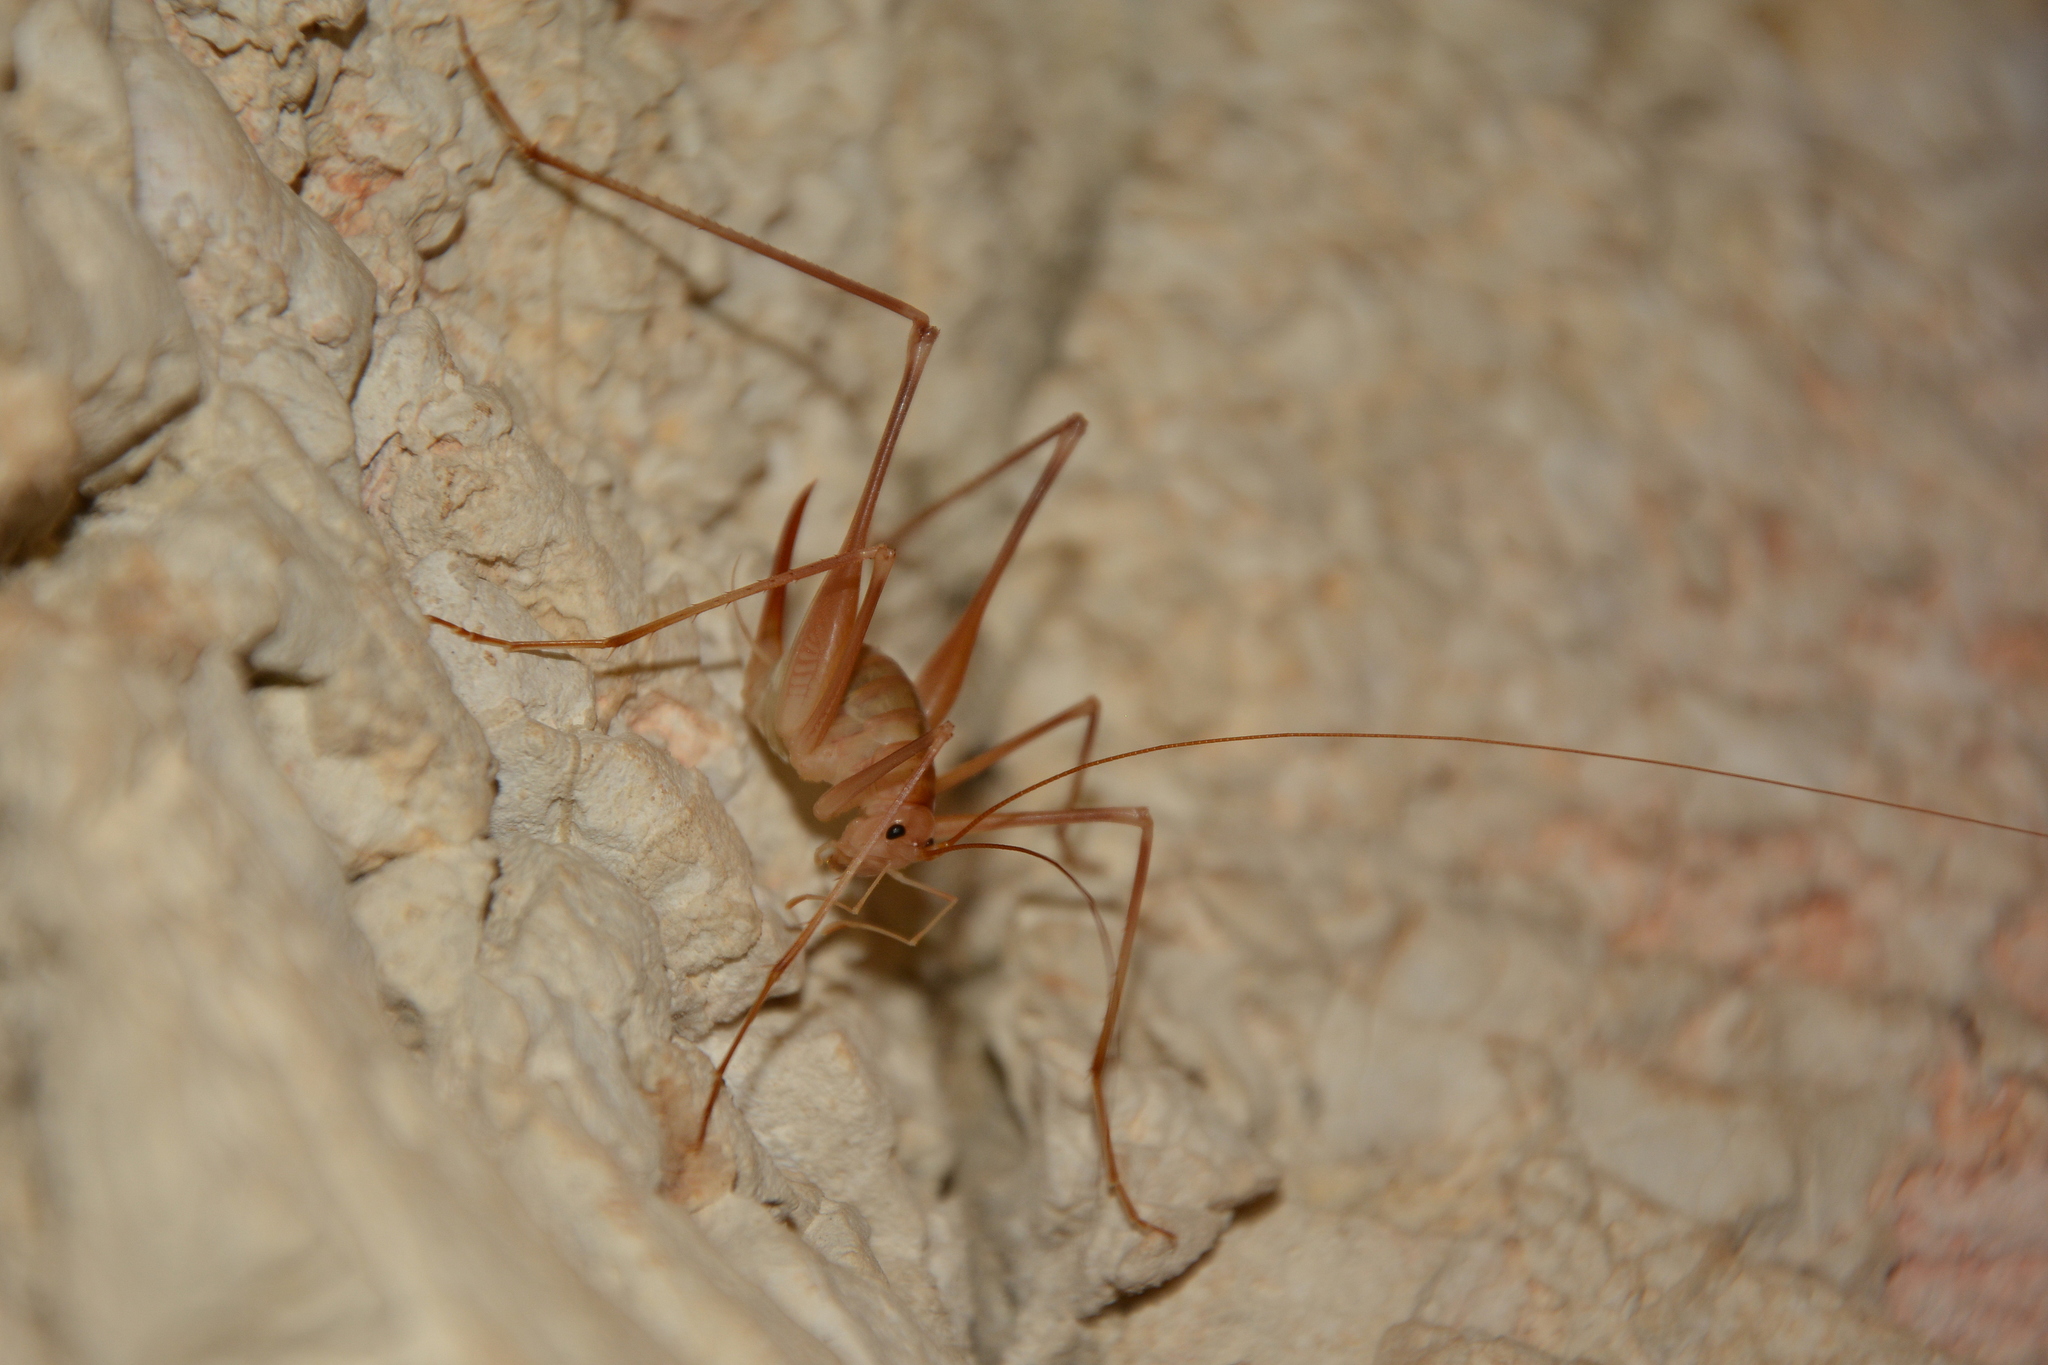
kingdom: Animalia
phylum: Arthropoda
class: Insecta
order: Orthoptera
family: Rhaphidophoridae
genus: Dolichopoda
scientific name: Dolichopoda araneiformis
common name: Spidery cave-cricket
